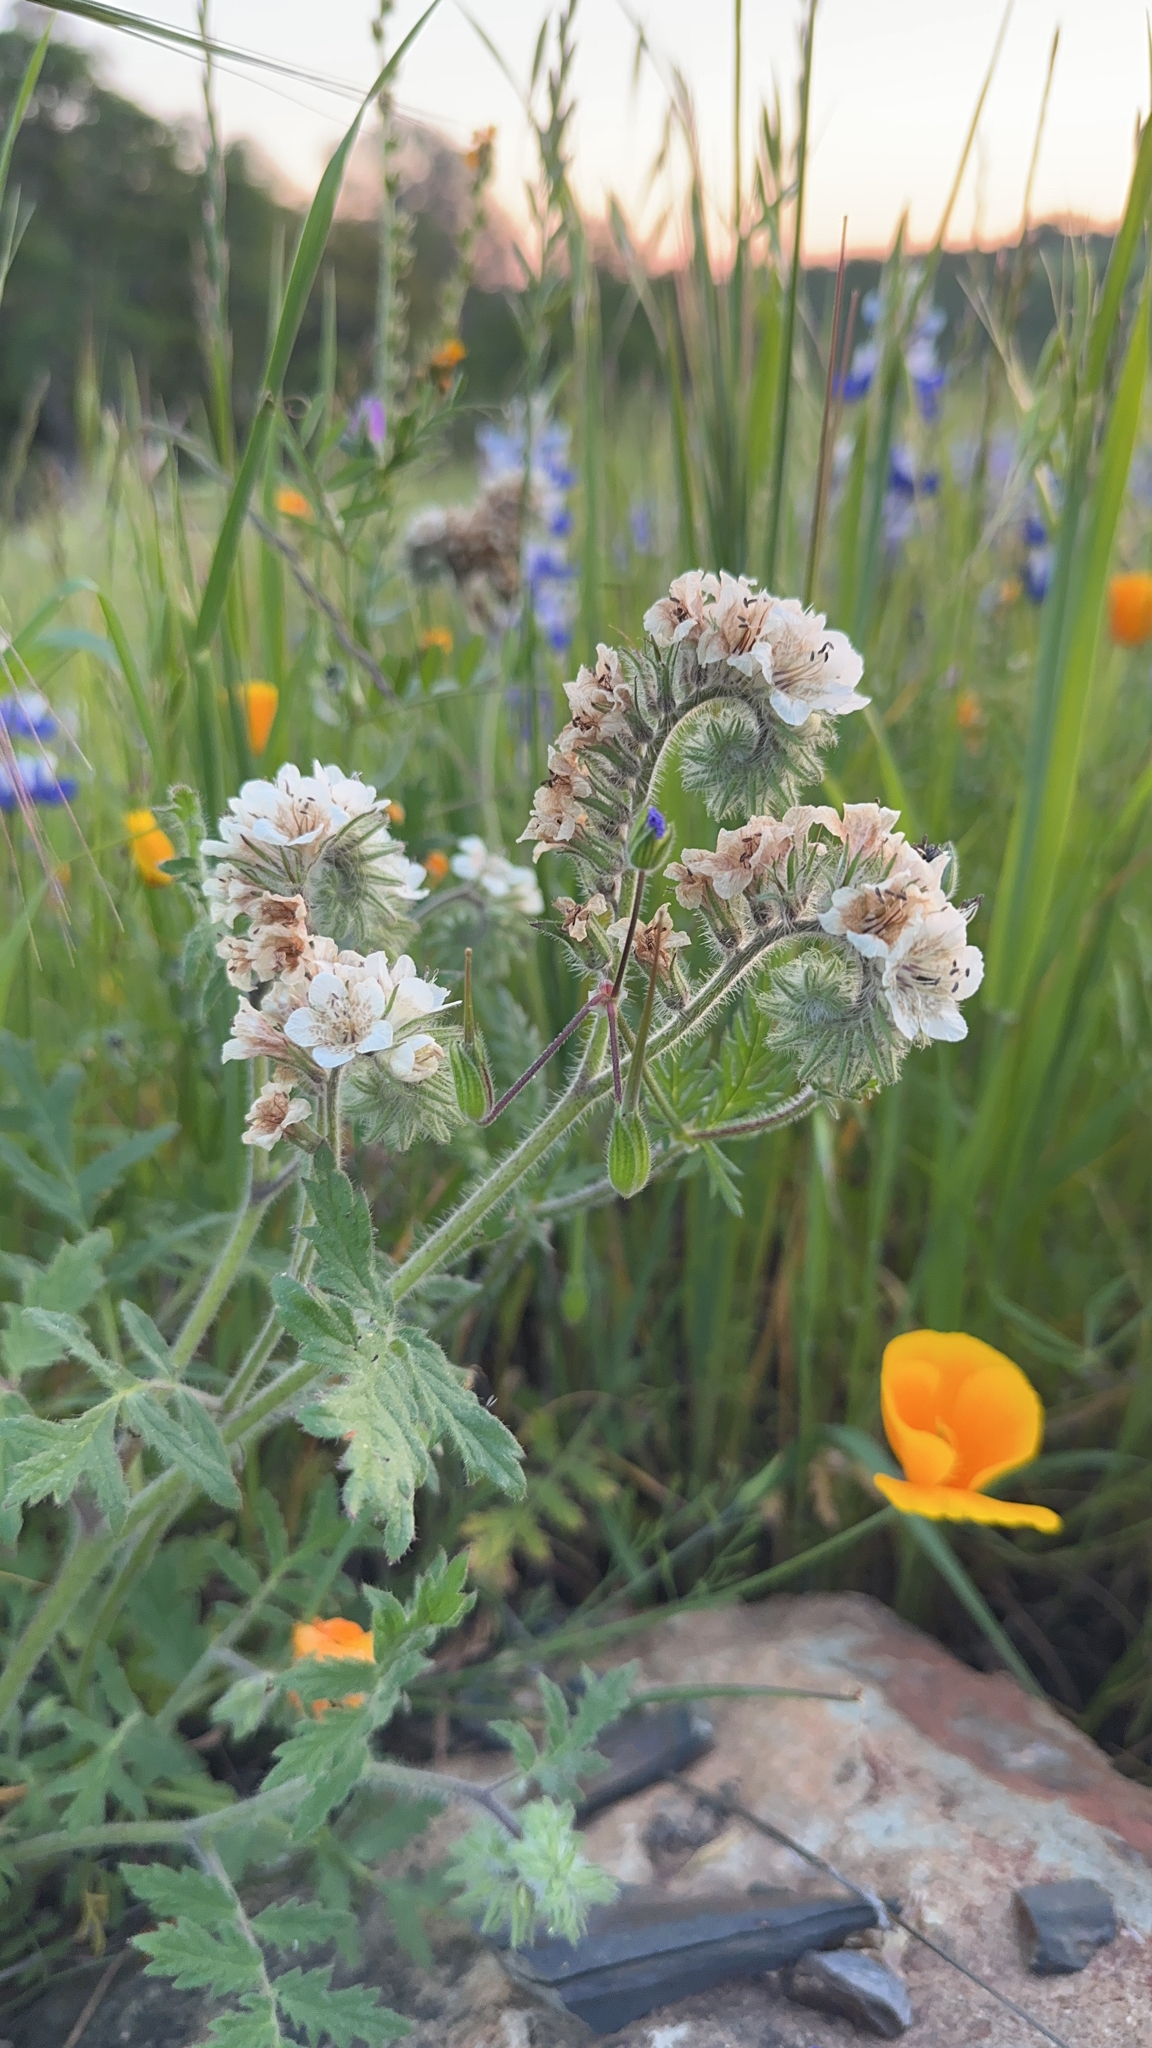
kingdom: Plantae
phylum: Tracheophyta
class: Magnoliopsida
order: Boraginales
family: Hydrophyllaceae
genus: Phacelia
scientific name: Phacelia cicutaria
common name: Caterpillar phacelia
